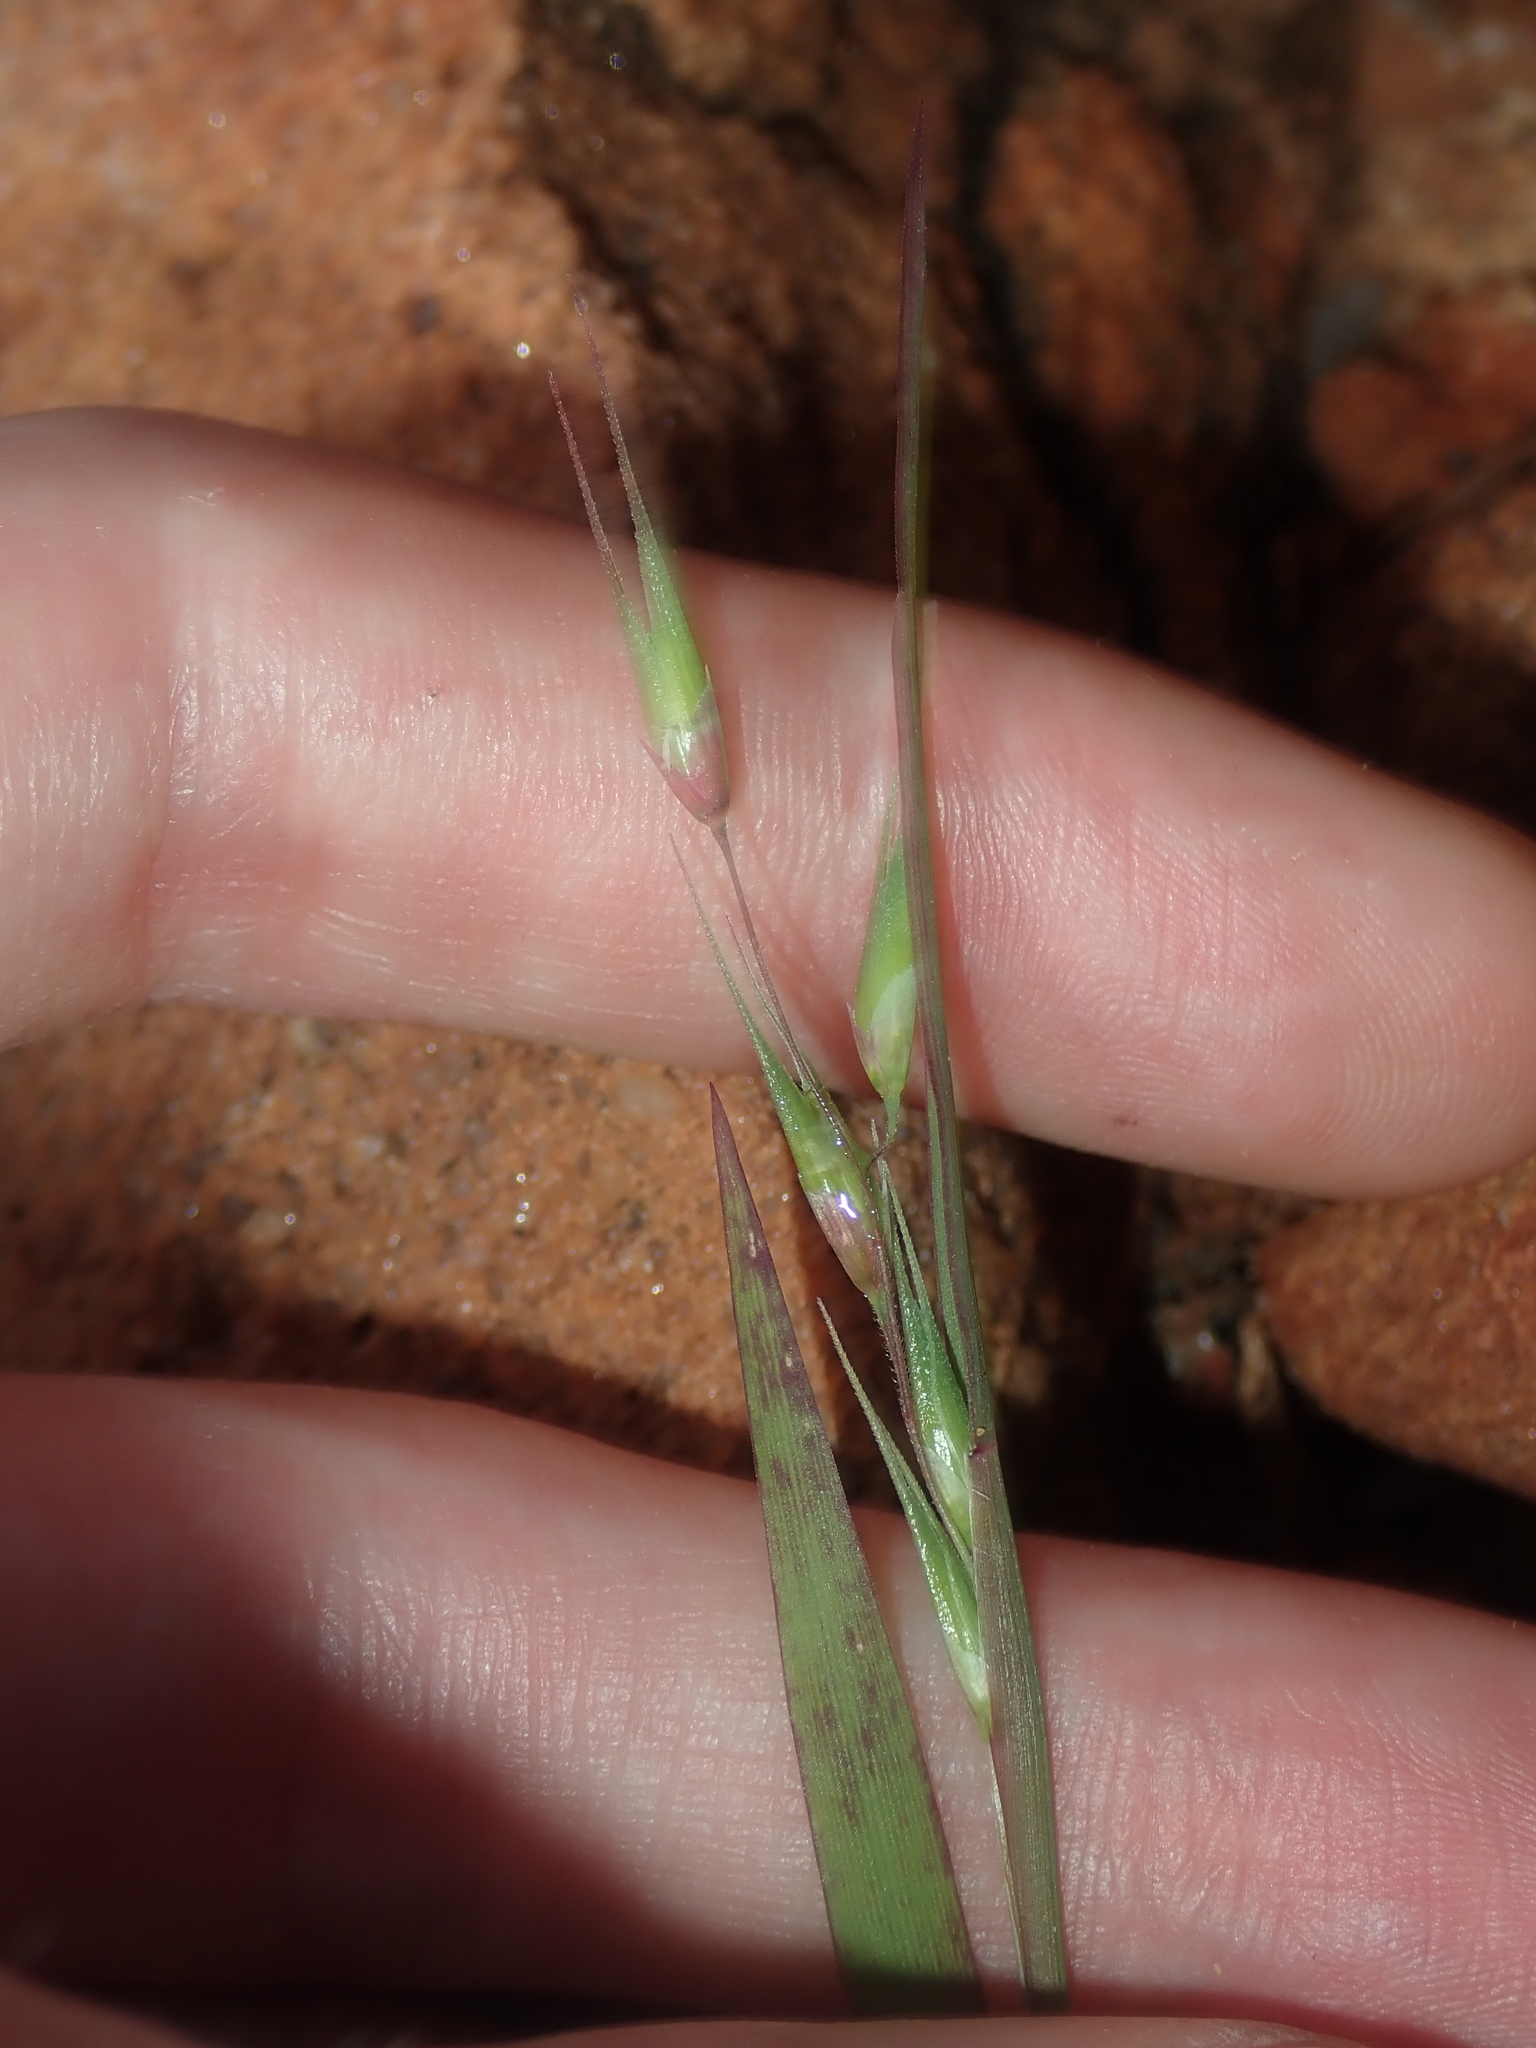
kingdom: Plantae
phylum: Tracheophyta
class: Liliopsida
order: Poales
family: Poaceae
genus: Ehrharta
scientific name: Ehrharta longiflora
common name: Longflowered veldtgrass
